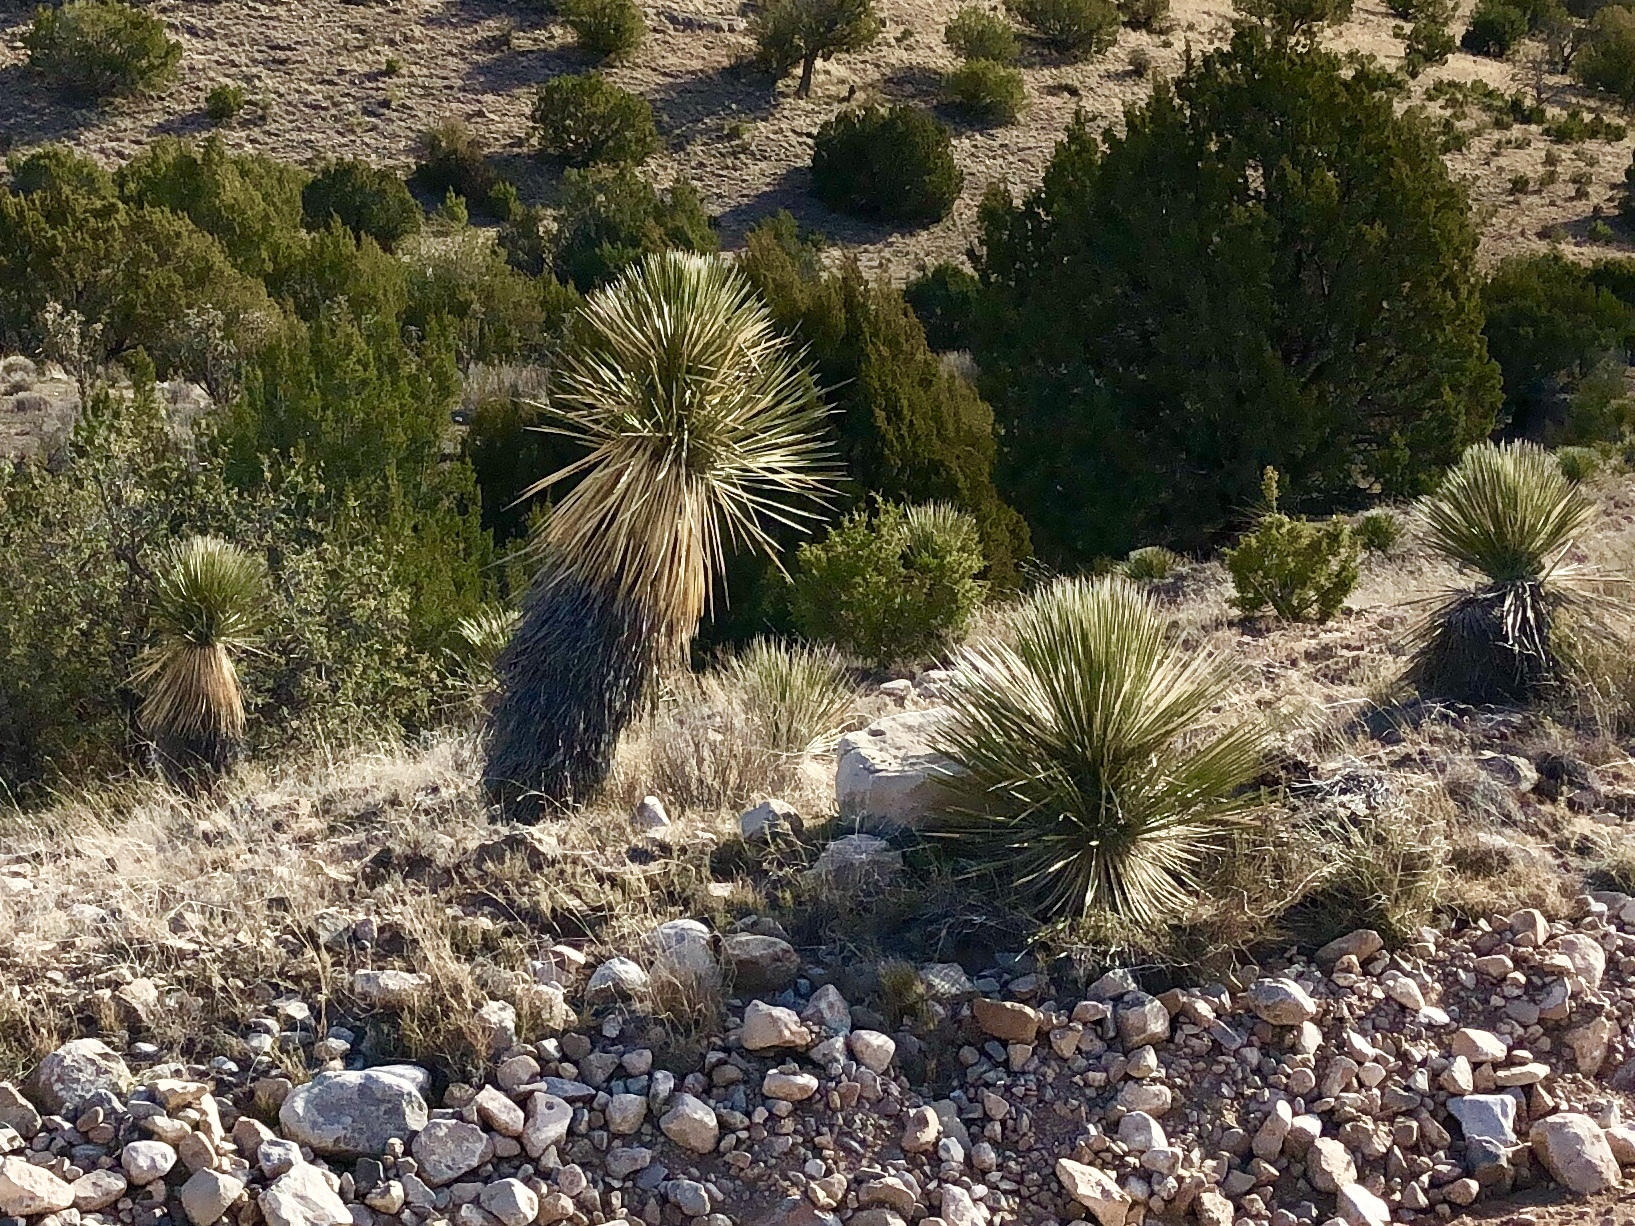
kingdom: Plantae
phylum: Tracheophyta
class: Liliopsida
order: Asparagales
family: Asparagaceae
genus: Yucca
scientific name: Yucca elata
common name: Palmella
